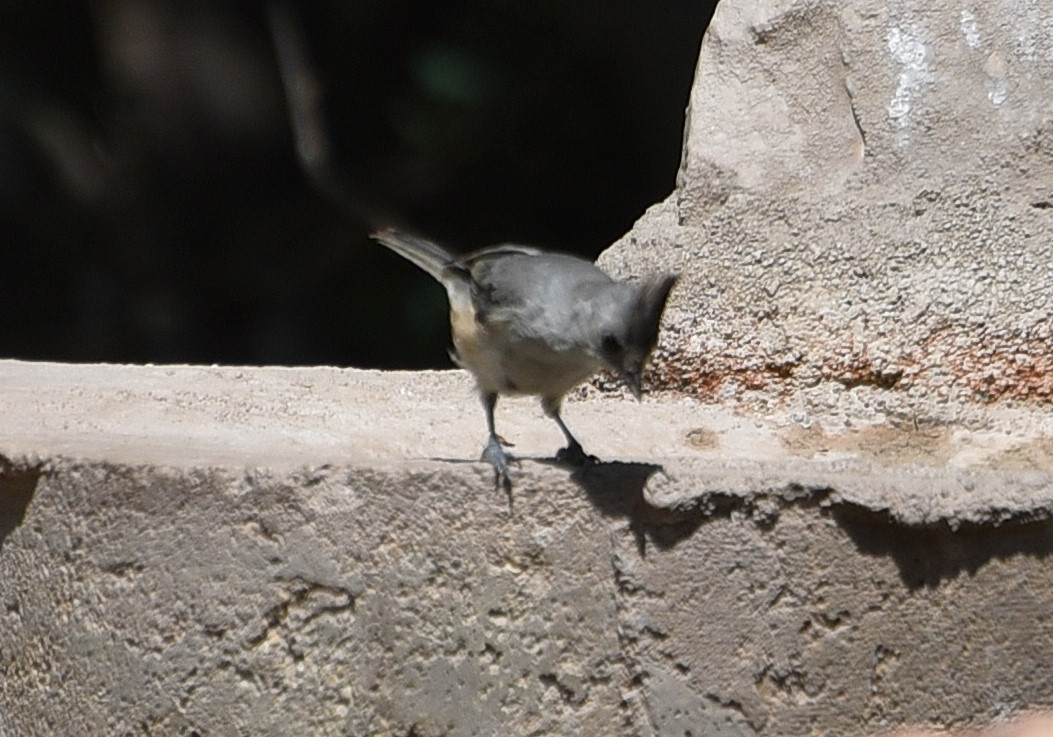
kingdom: Animalia
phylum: Chordata
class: Aves
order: Passeriformes
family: Paridae
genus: Baeolophus
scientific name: Baeolophus atricristatus
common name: Black-crested titmouse
